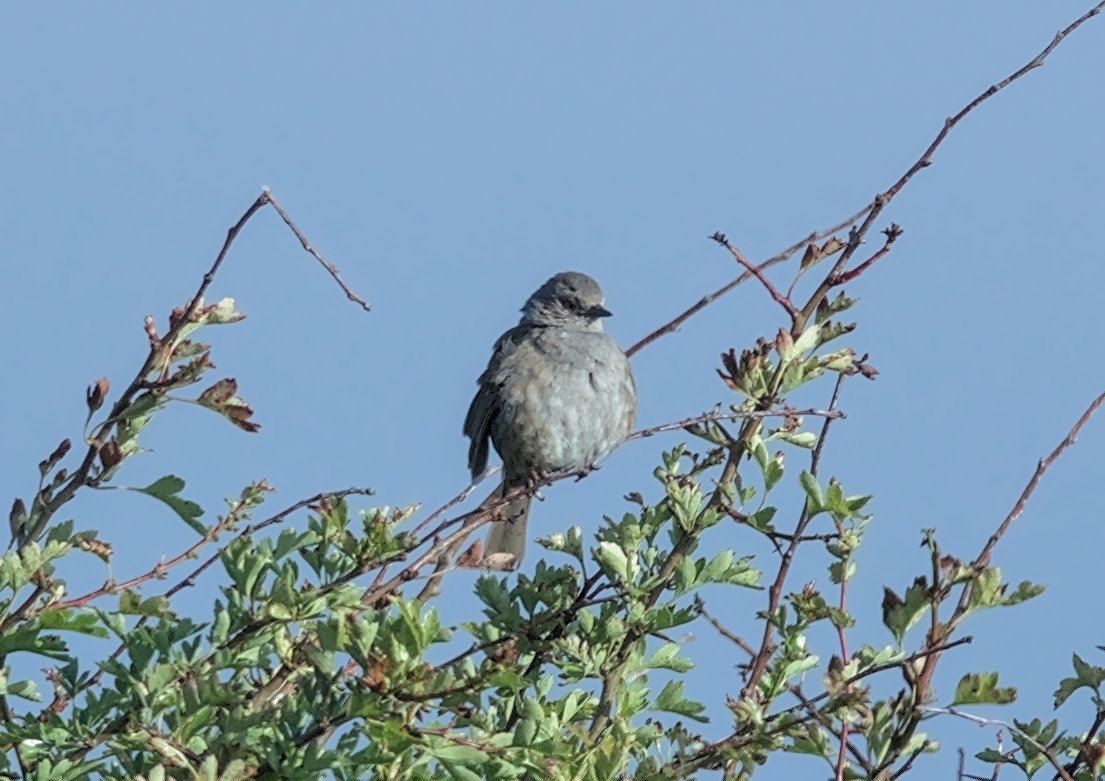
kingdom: Animalia
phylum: Chordata
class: Aves
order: Passeriformes
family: Prunellidae
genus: Prunella
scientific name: Prunella modularis
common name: Dunnock
